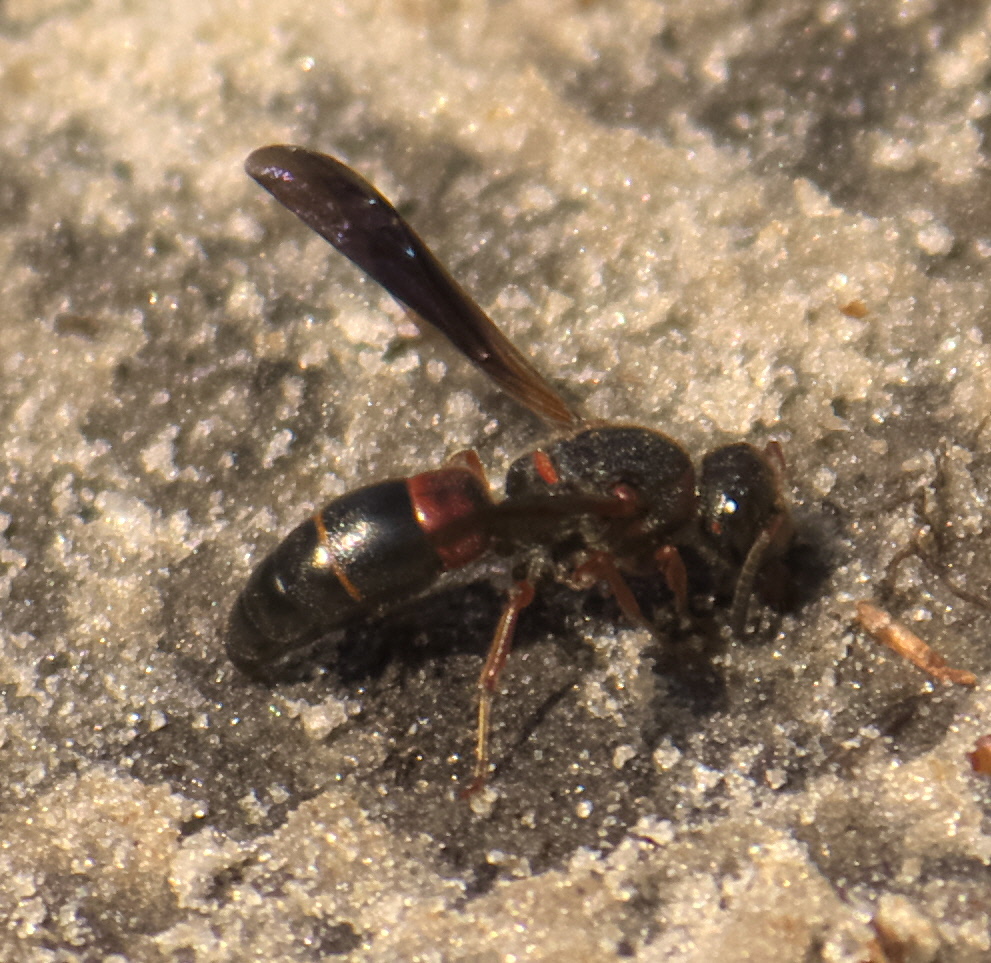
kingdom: Animalia
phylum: Arthropoda
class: Insecta
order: Hymenoptera
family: Eumenidae
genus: Euodynerus
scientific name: Euodynerus
